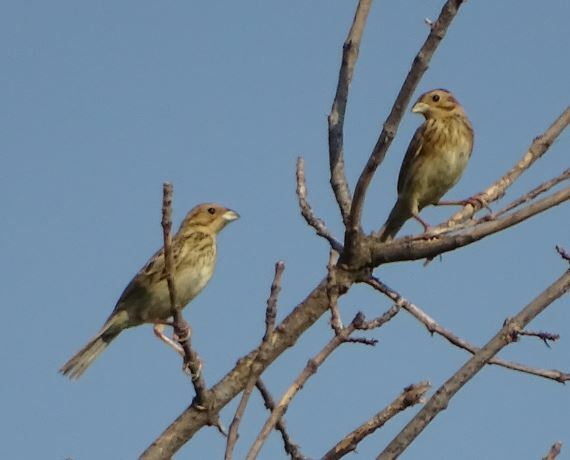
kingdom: Animalia
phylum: Chordata
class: Aves
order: Passeriformes
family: Emberizidae
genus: Emberiza
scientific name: Emberiza calandra
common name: Corn bunting
